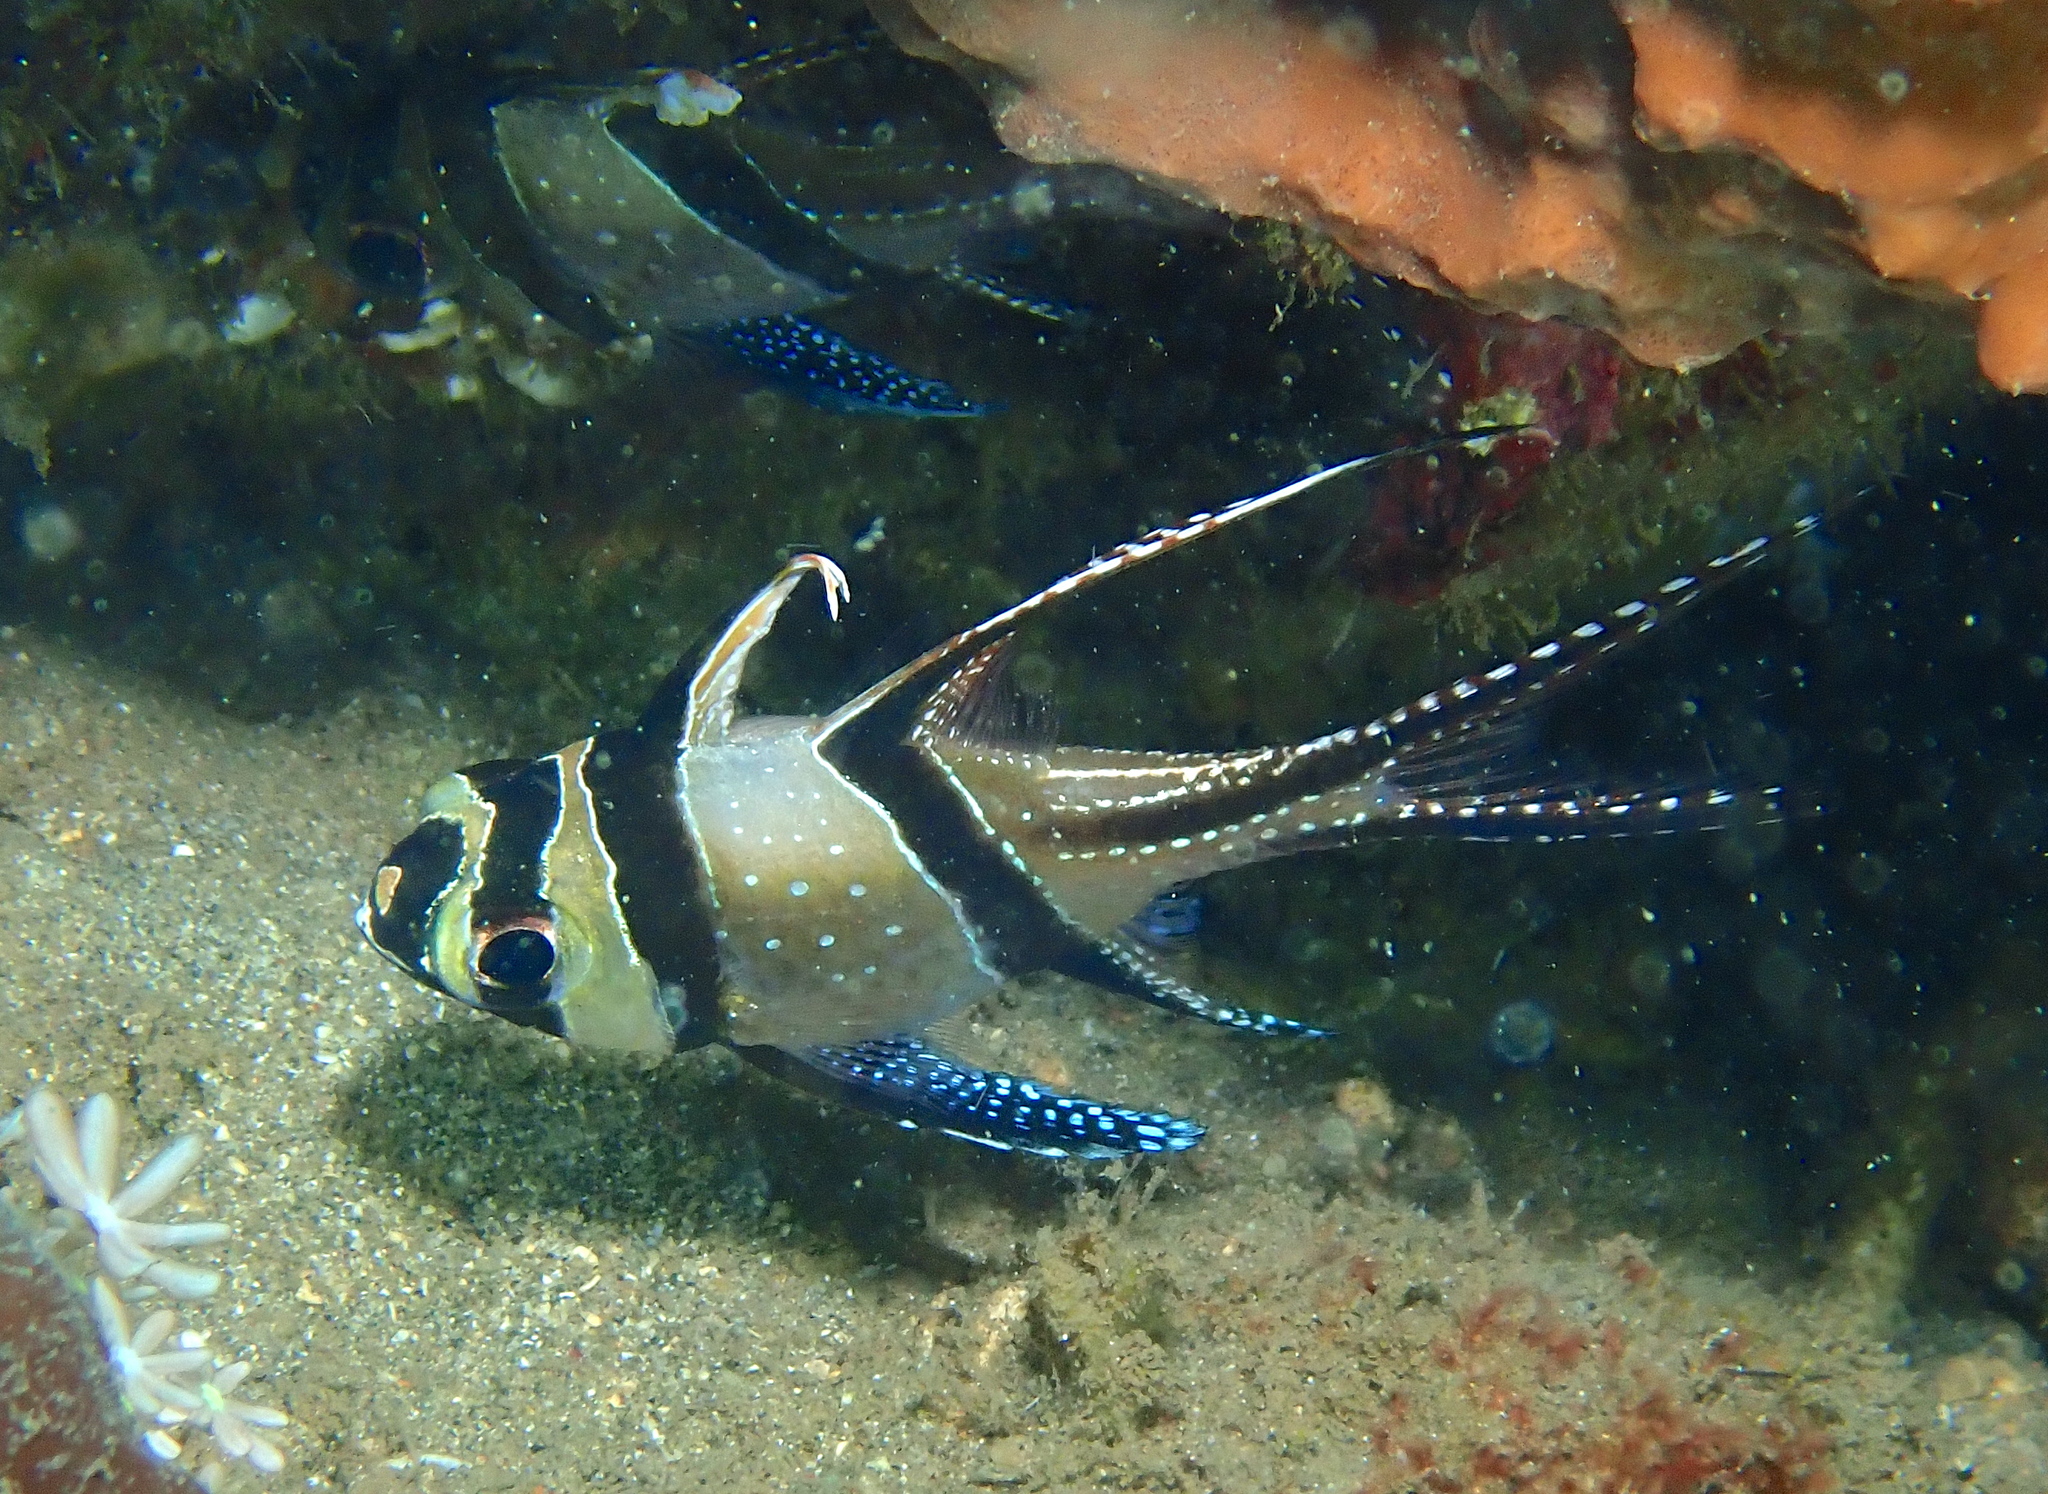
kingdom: Animalia
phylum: Chordata
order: Perciformes
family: Apogonidae
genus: Pterapogon
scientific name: Pterapogon kauderni
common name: Banggai cardinalfish
